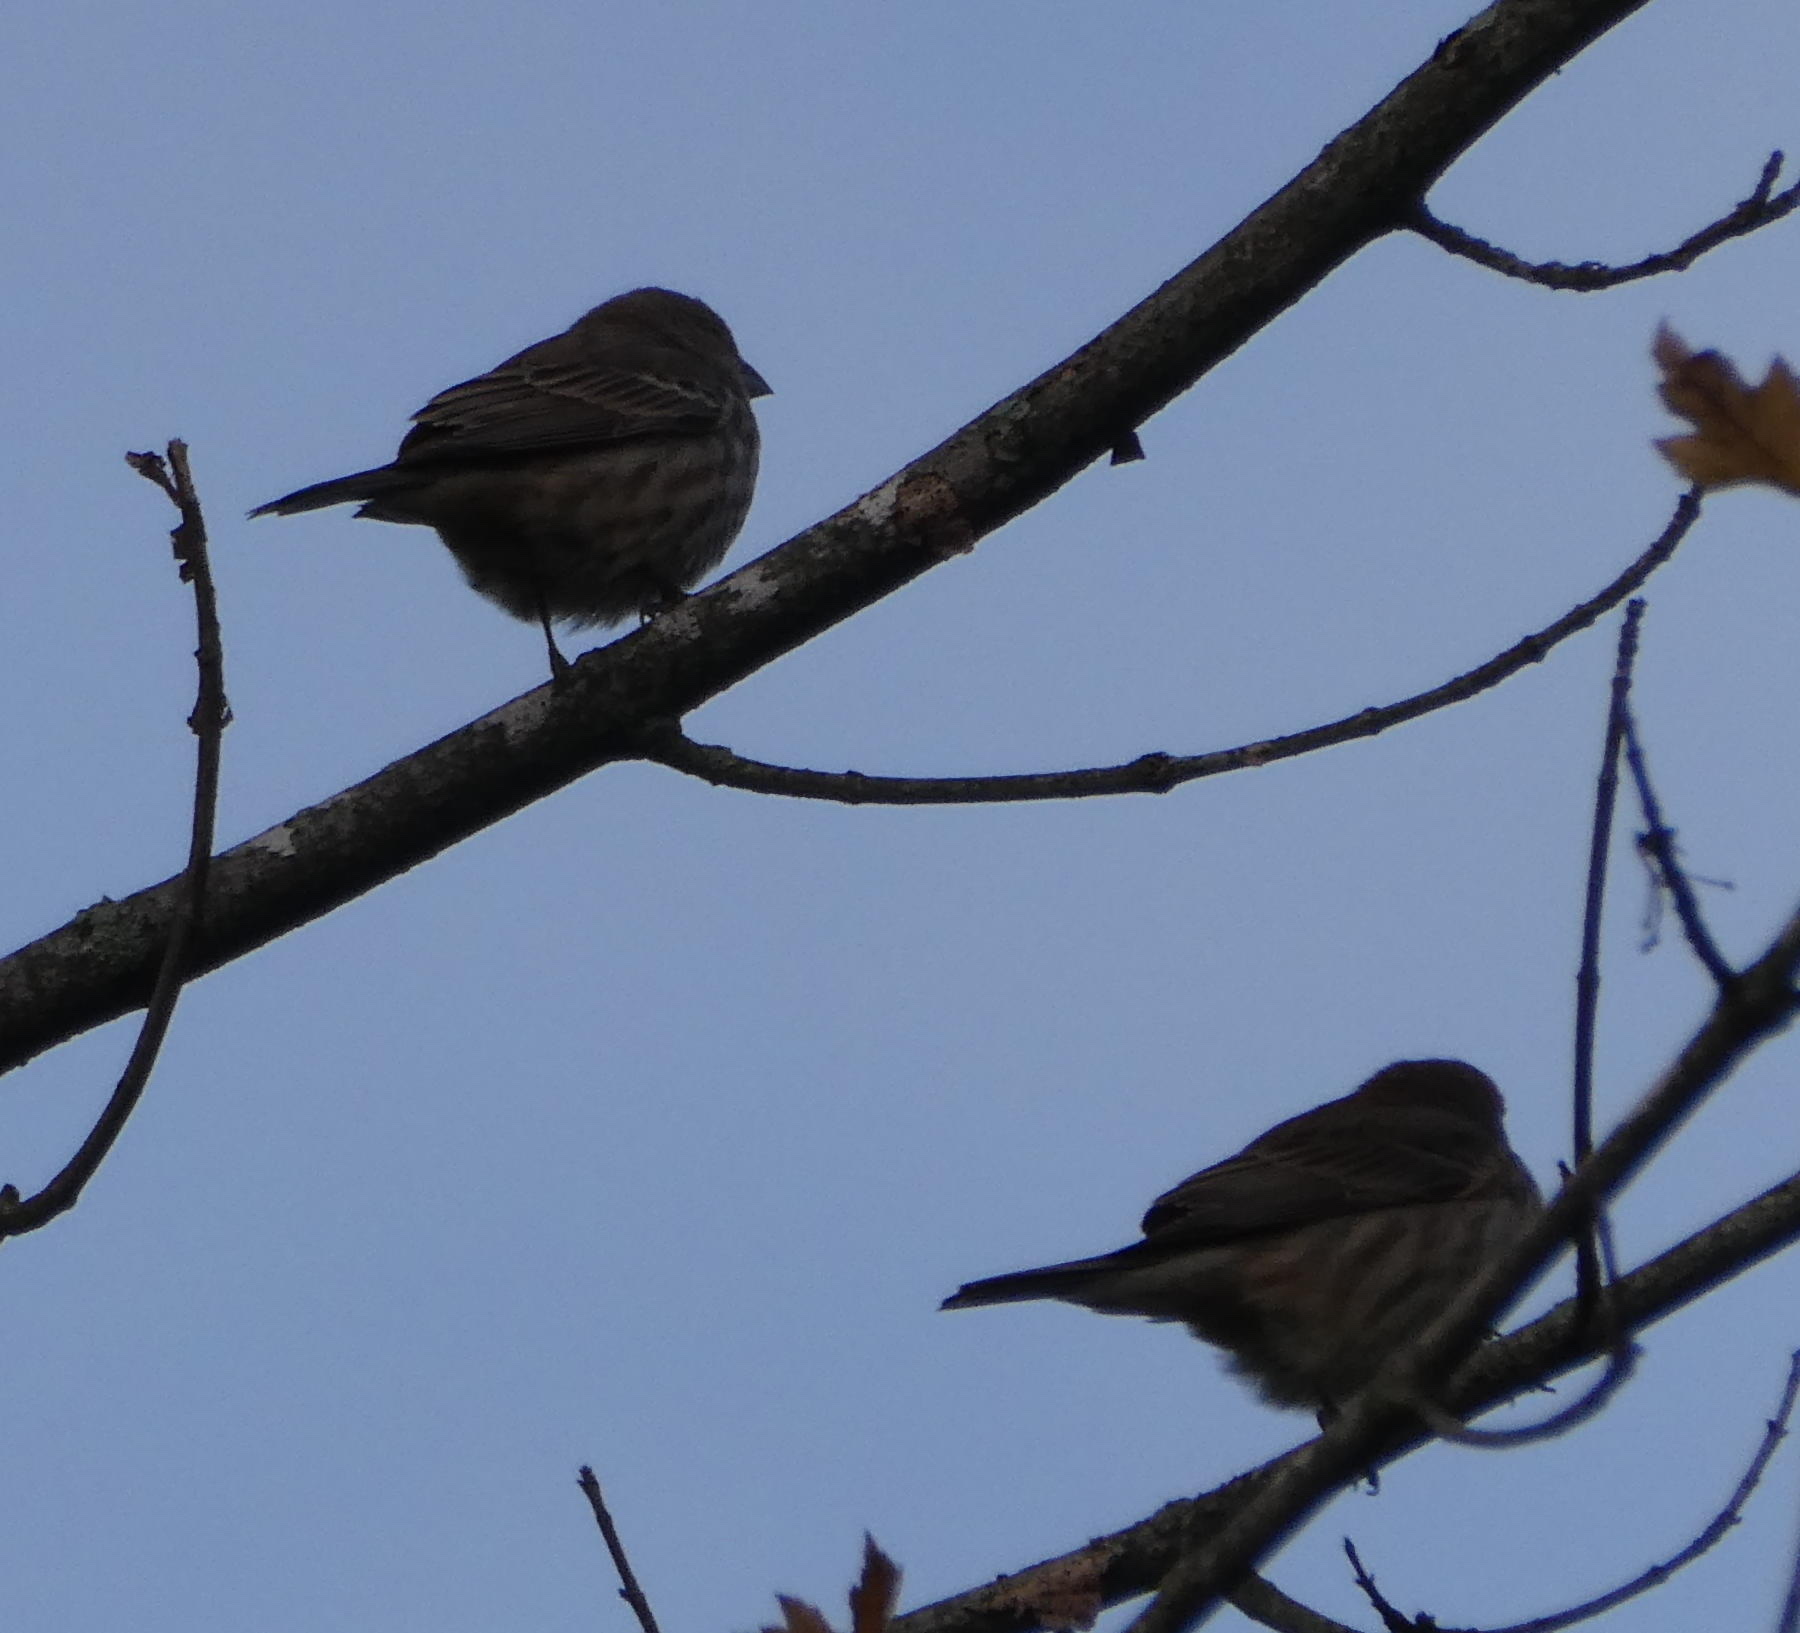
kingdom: Animalia
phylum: Chordata
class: Aves
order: Passeriformes
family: Fringillidae
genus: Haemorhous
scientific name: Haemorhous mexicanus
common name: House finch
